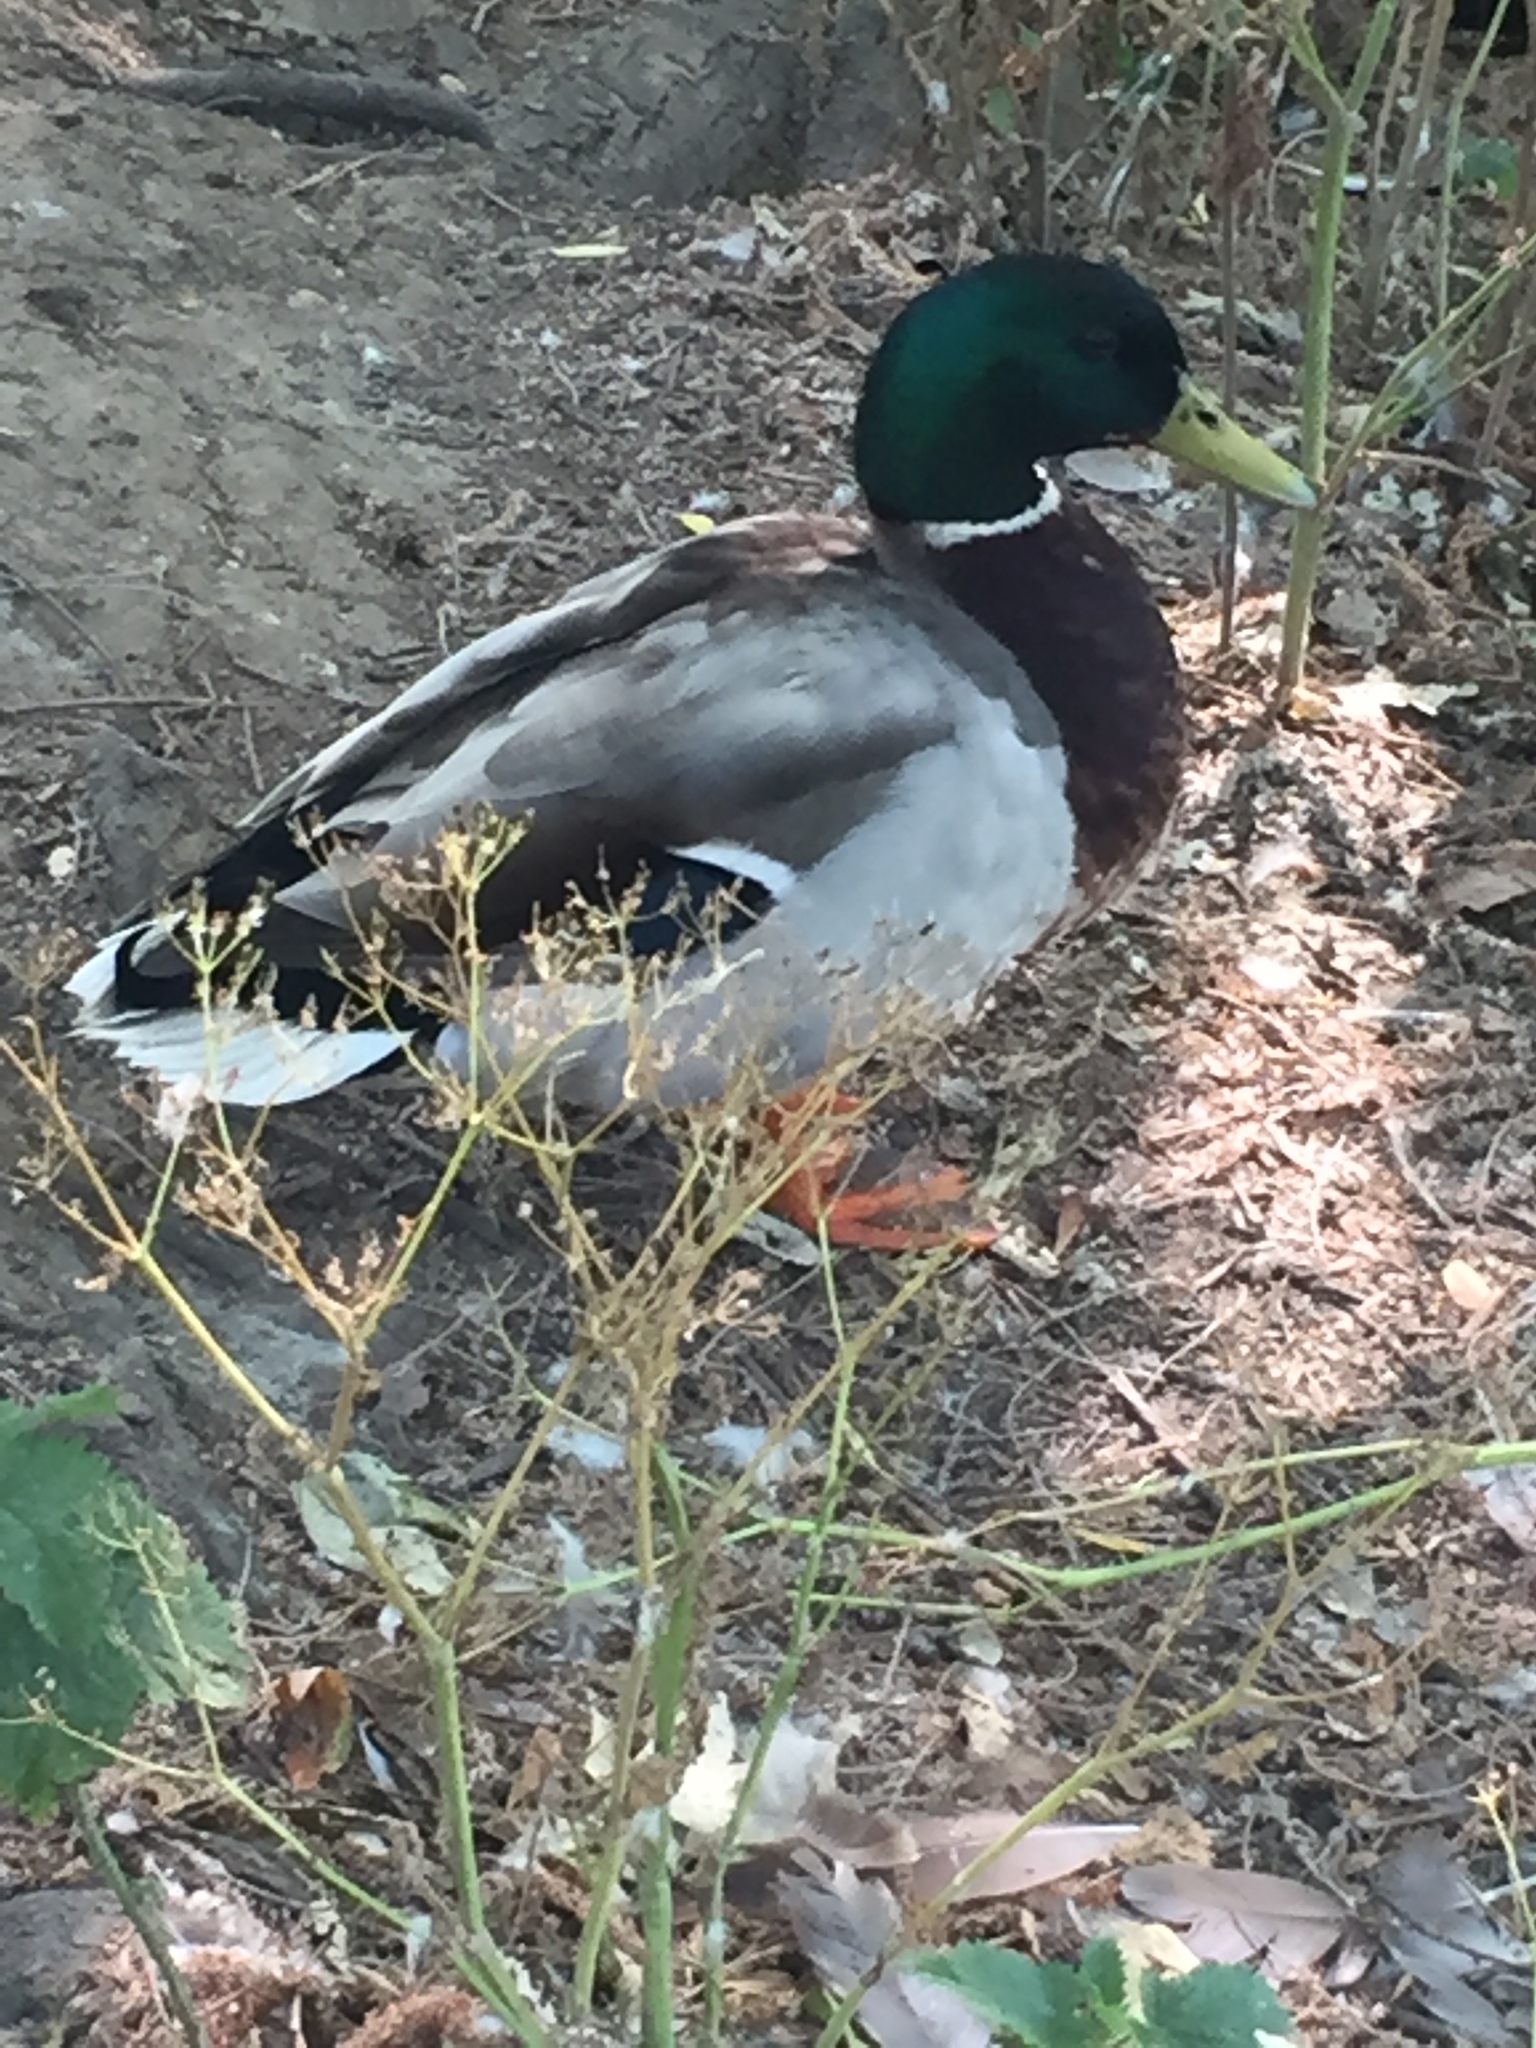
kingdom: Animalia
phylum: Chordata
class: Aves
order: Anseriformes
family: Anatidae
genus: Anas
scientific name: Anas platyrhynchos
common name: Mallard
